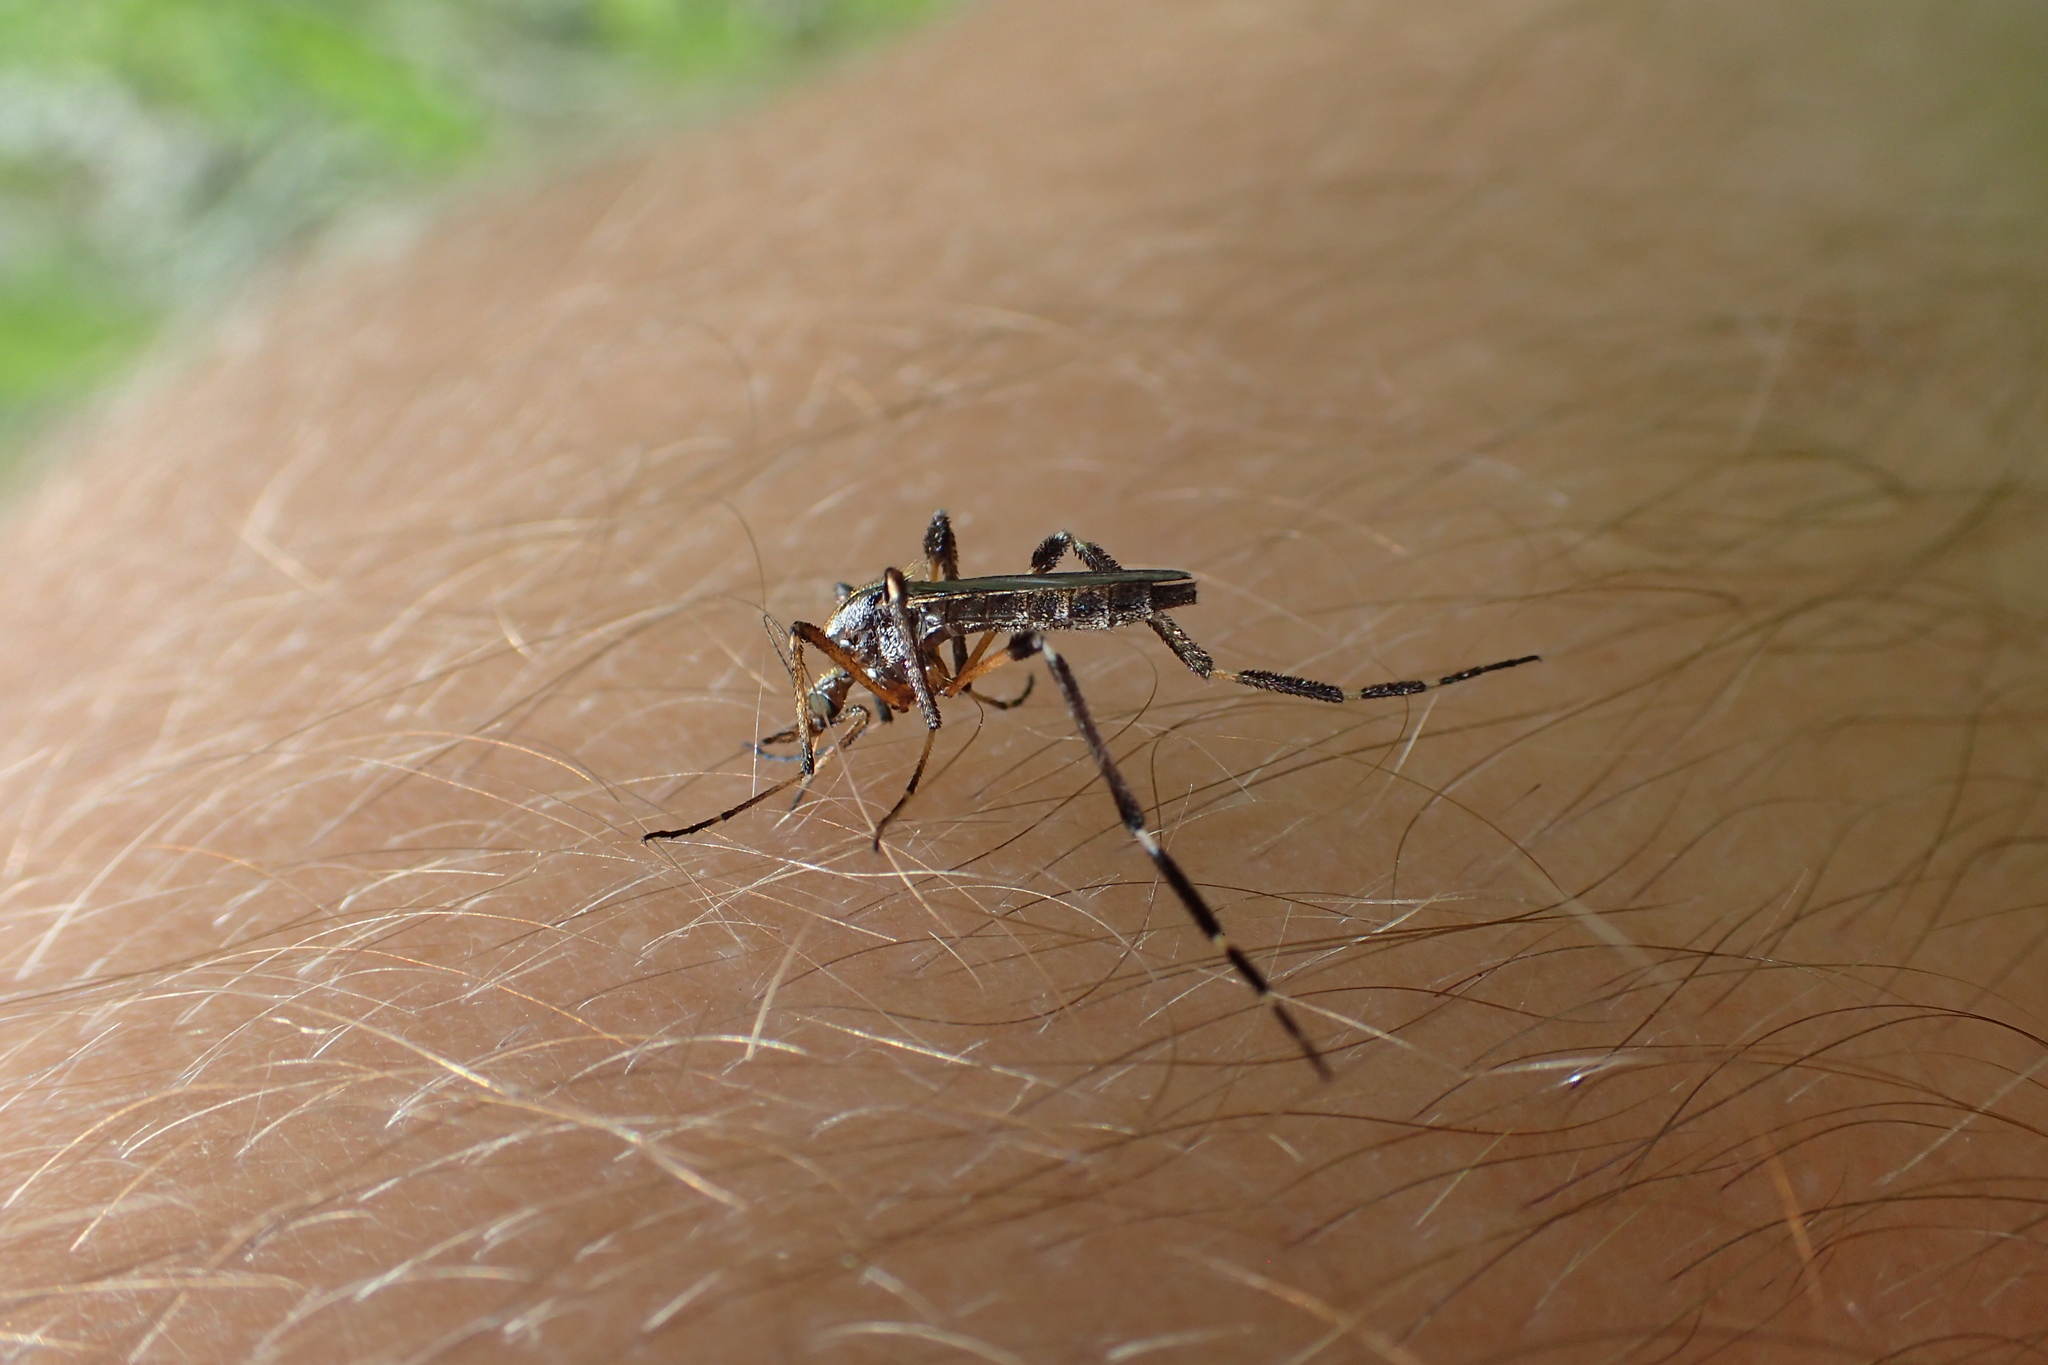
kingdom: Animalia
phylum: Arthropoda
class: Insecta
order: Diptera
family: Culicidae
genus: Psorophora
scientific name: Psorophora ciliata
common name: Gallinipper
